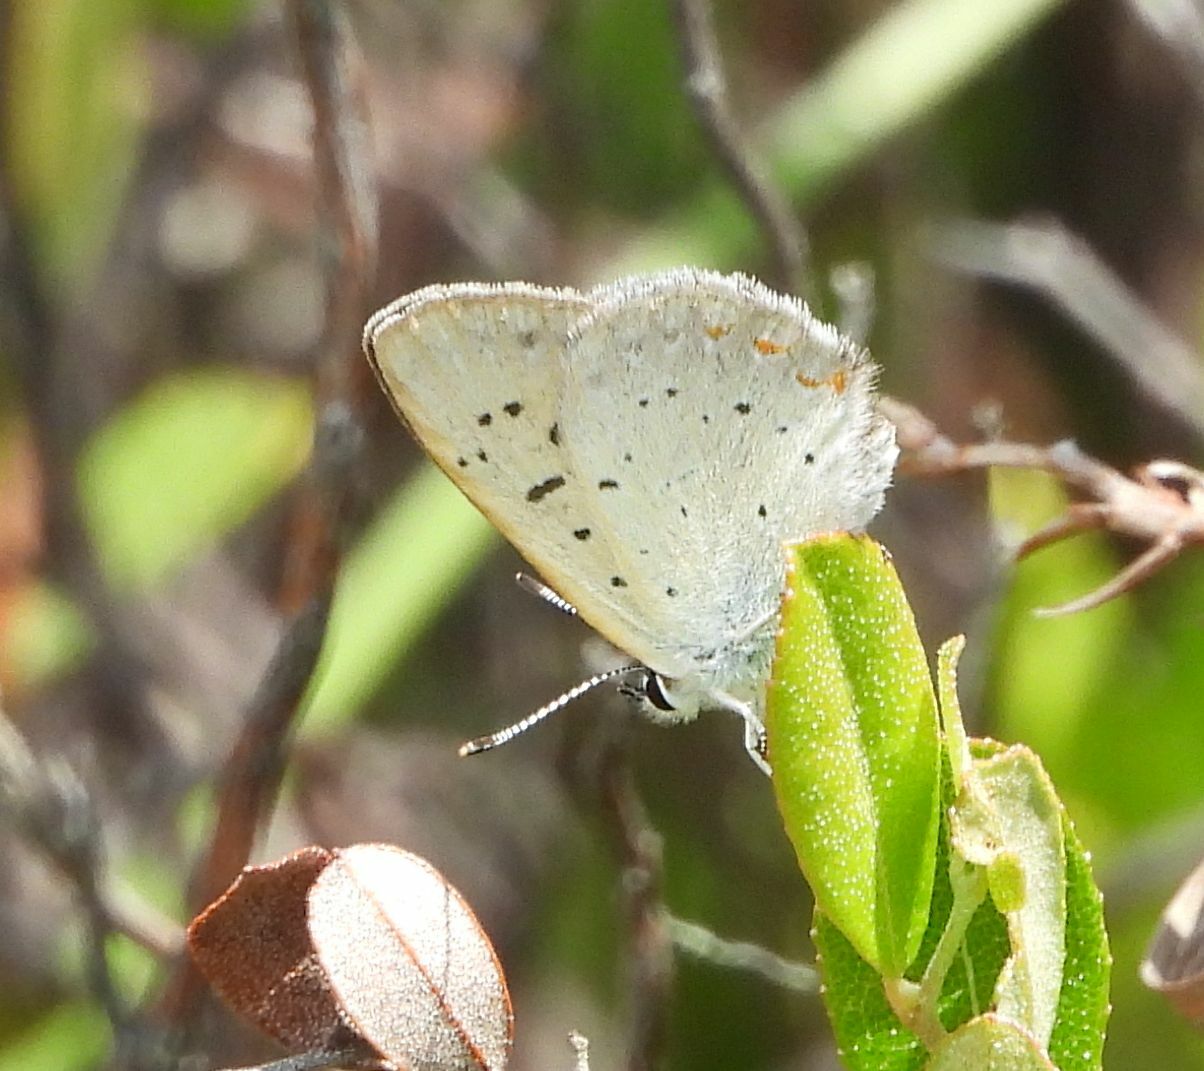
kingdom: Animalia
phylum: Arthropoda
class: Insecta
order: Lepidoptera
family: Lycaenidae
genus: Tharsalea
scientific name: Tharsalea epixanthe
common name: Bog copper
